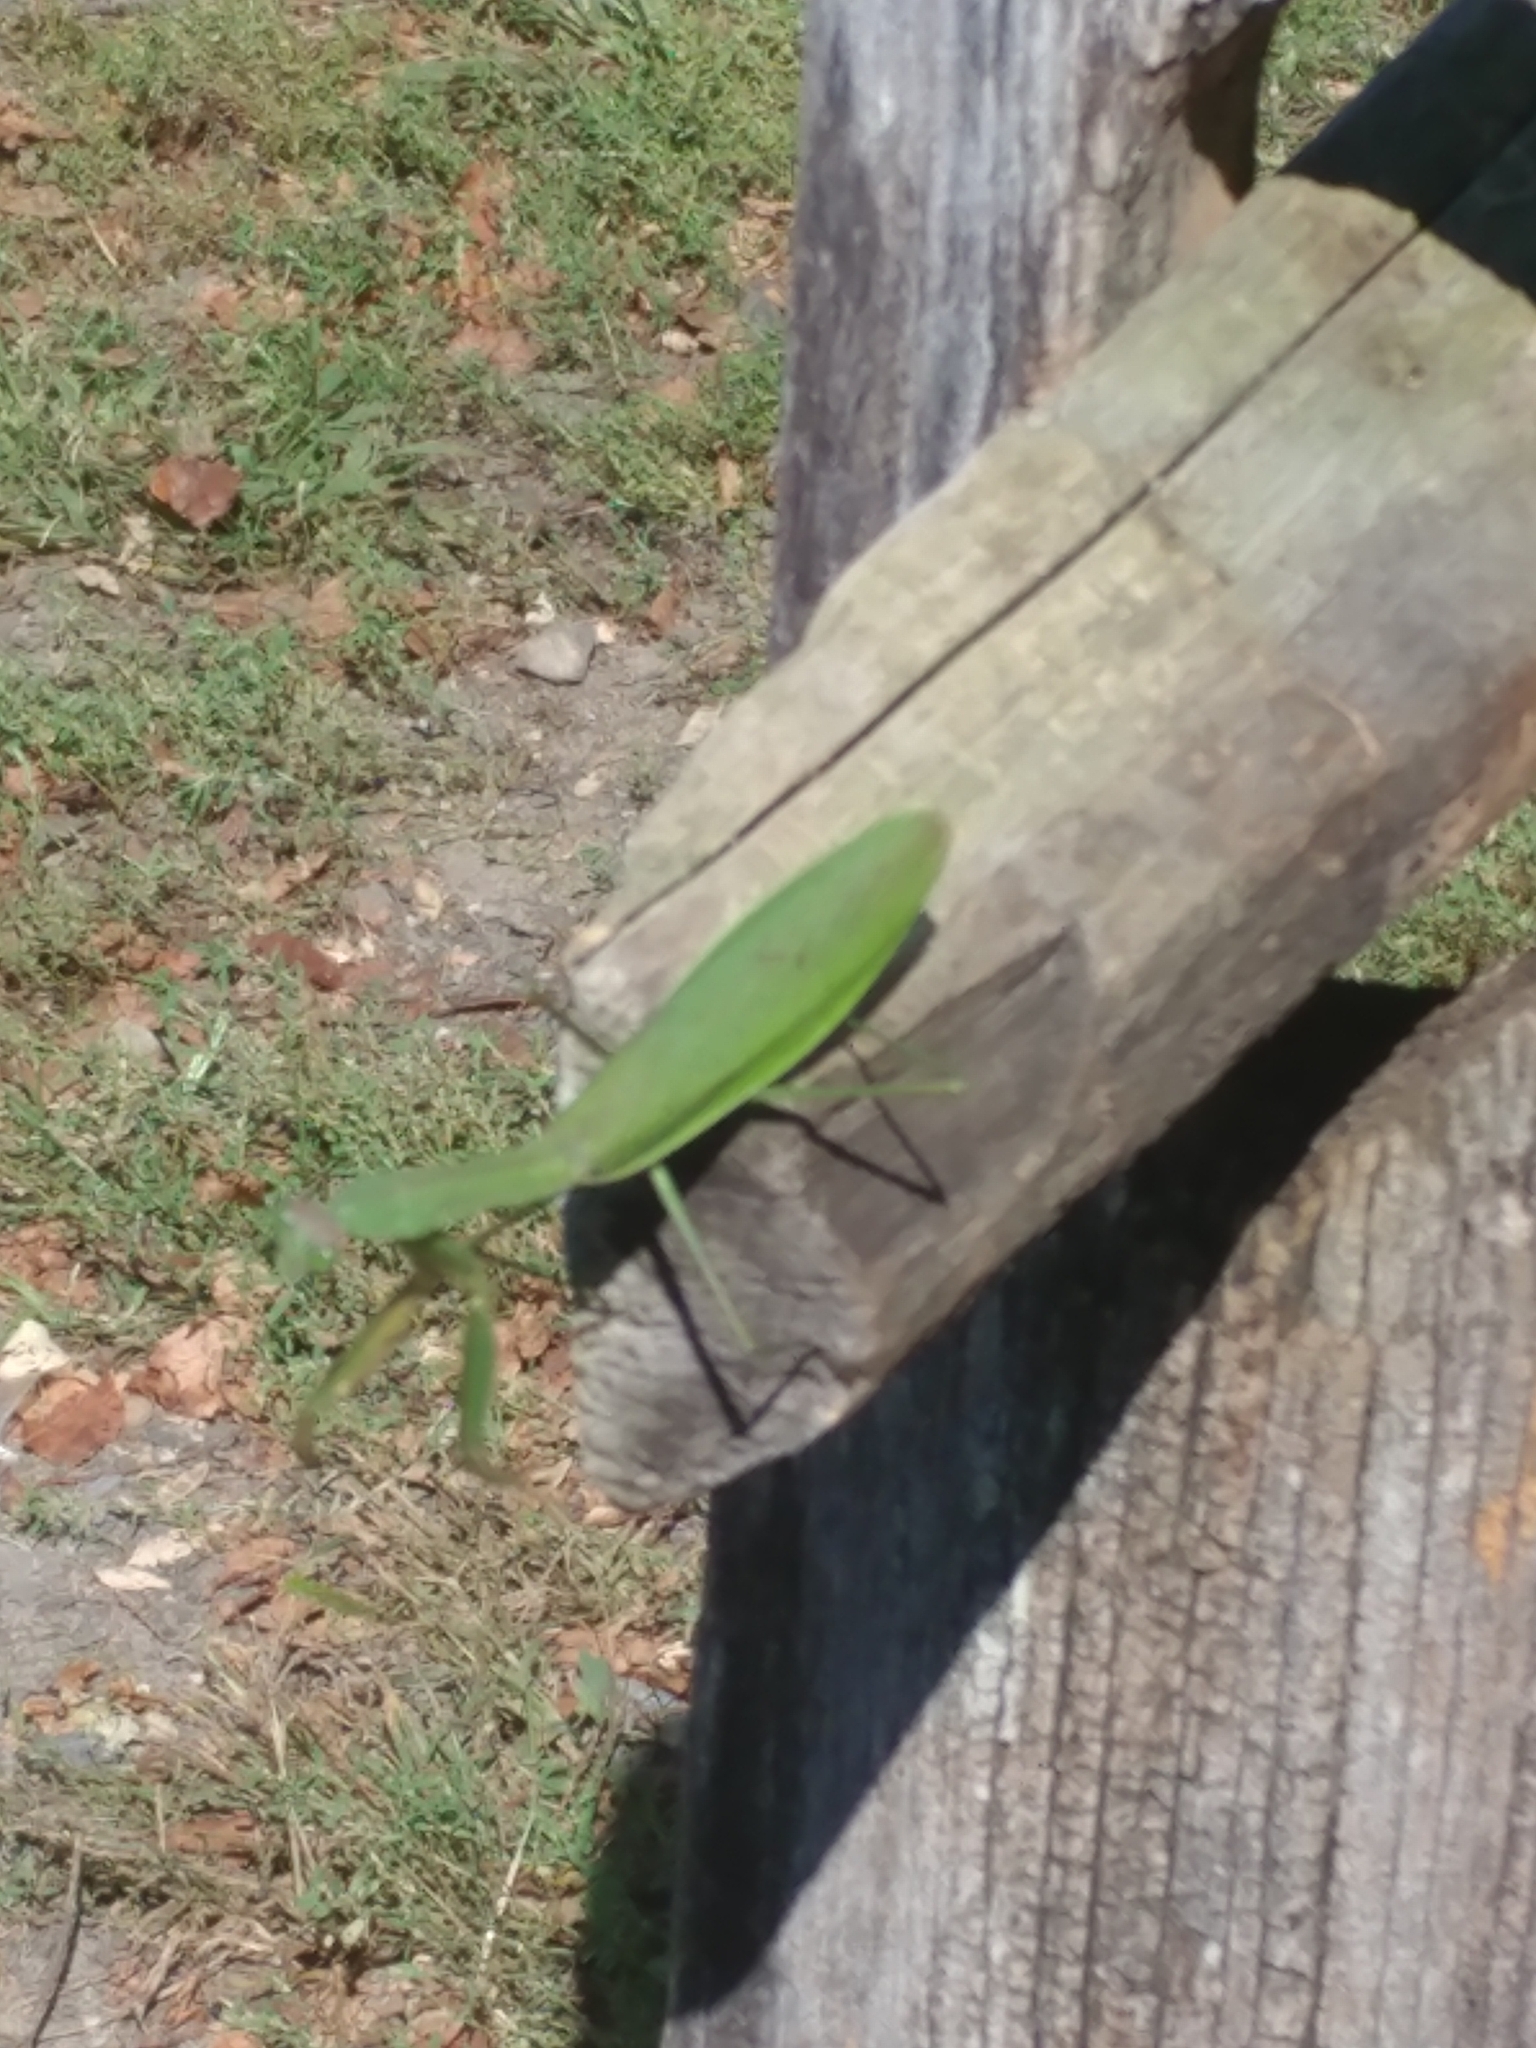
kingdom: Animalia
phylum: Arthropoda
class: Insecta
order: Mantodea
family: Mantidae
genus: Tenodera
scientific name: Tenodera sinensis
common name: Chinese mantis
